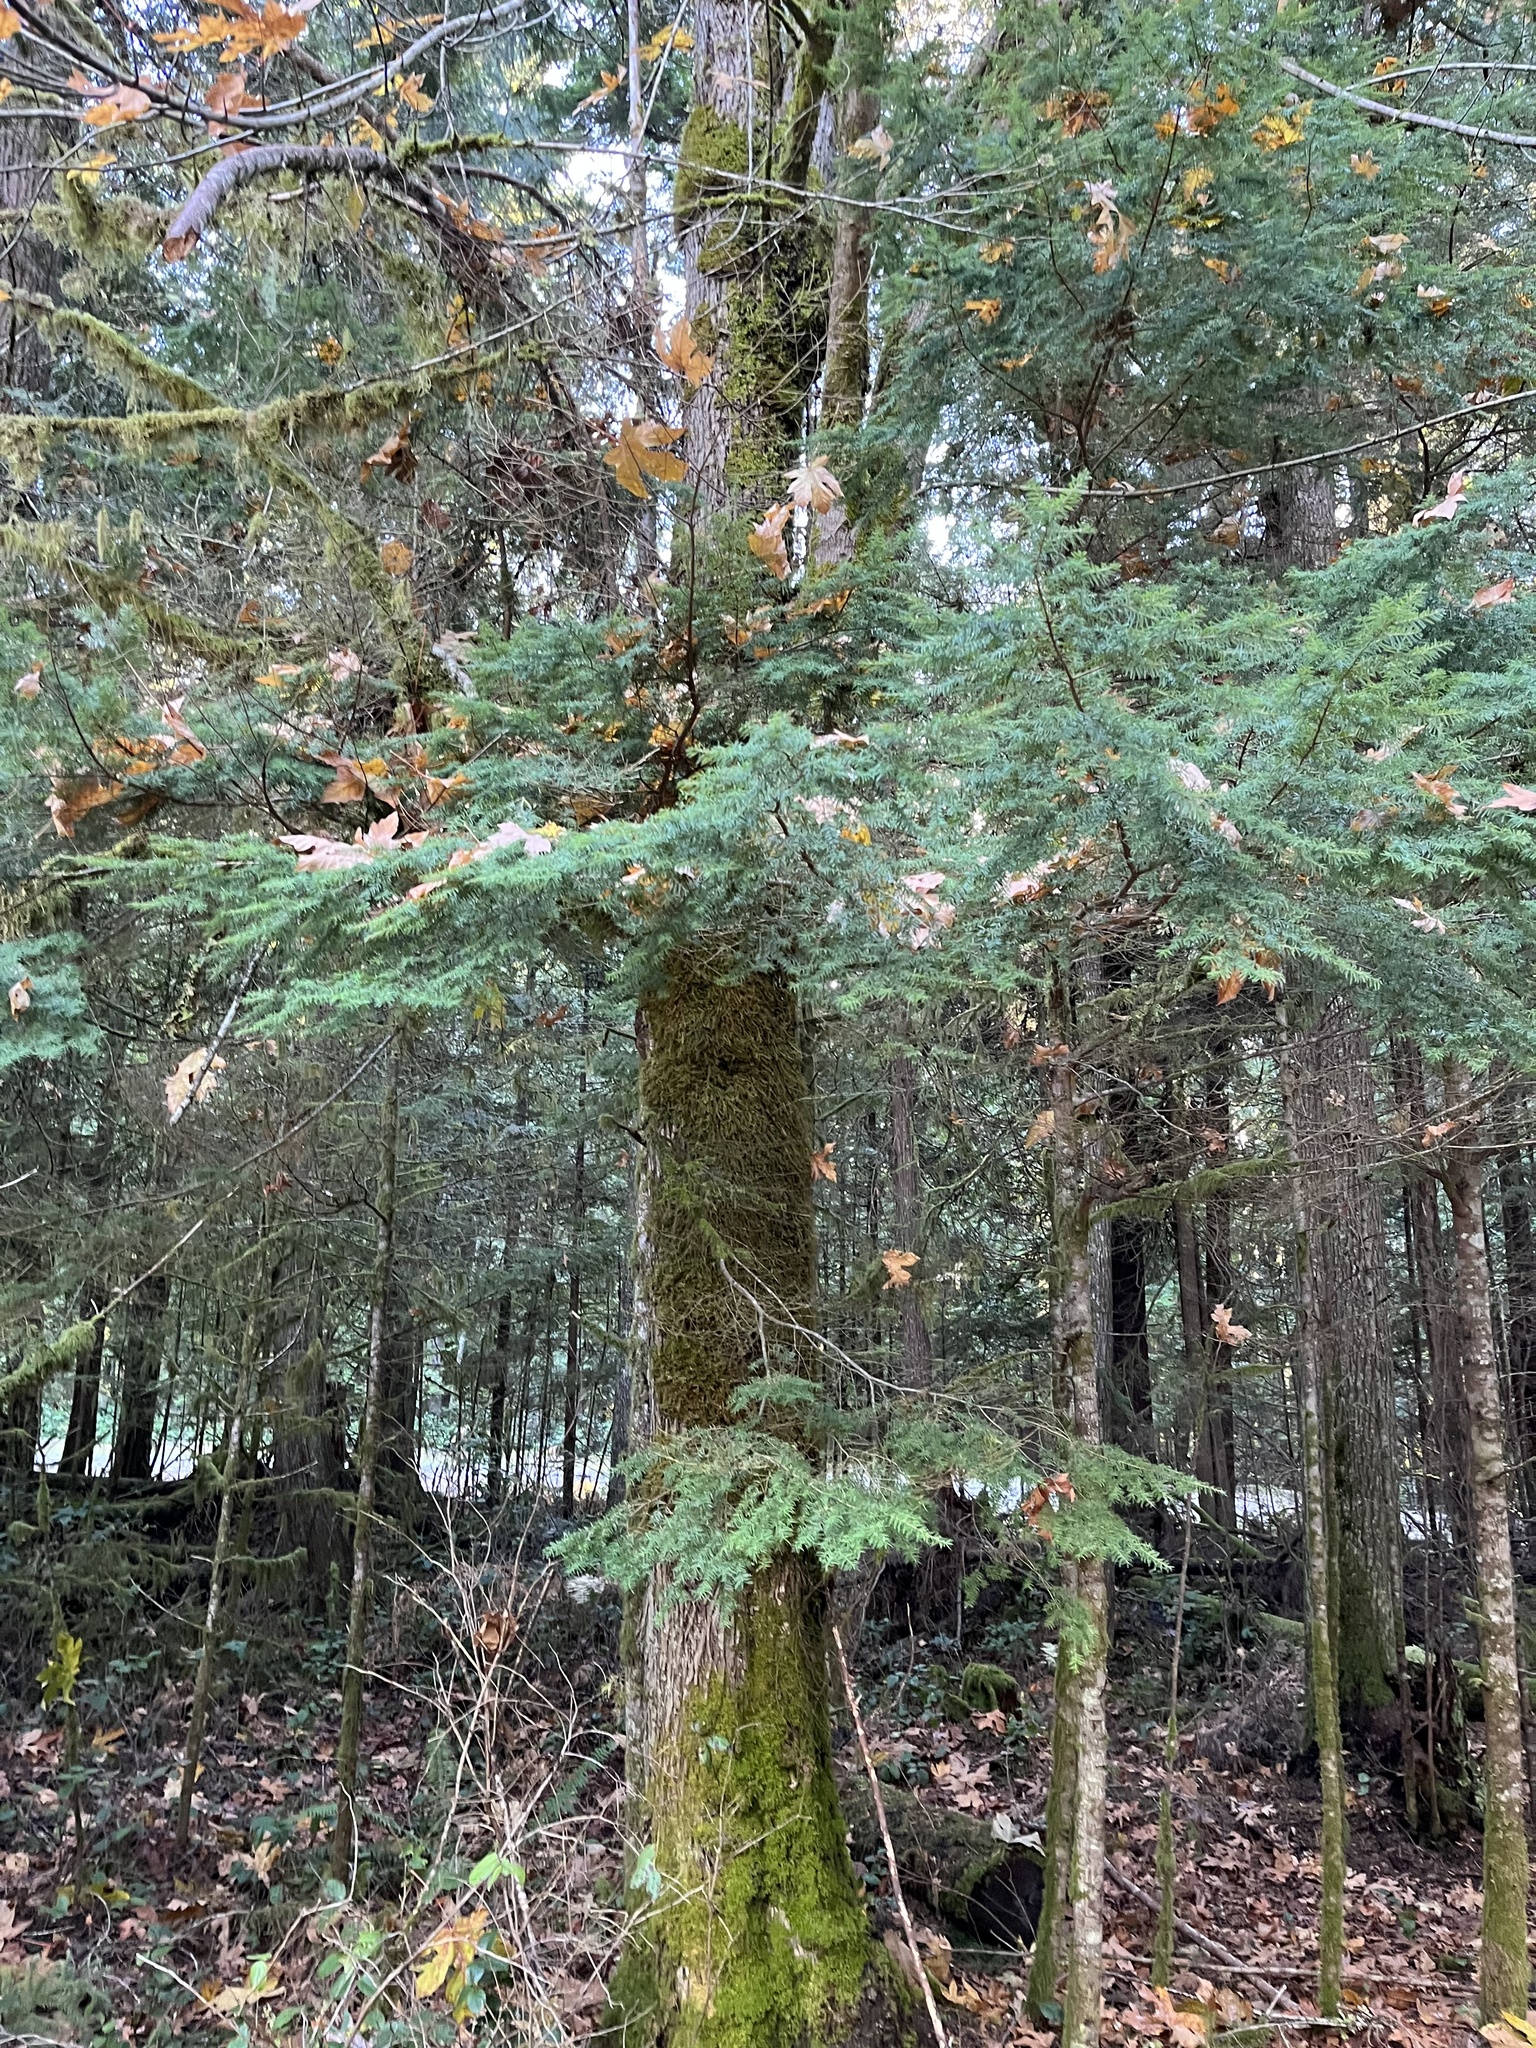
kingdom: Plantae
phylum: Tracheophyta
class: Pinopsida
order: Pinales
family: Pinaceae
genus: Tsuga
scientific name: Tsuga heterophylla
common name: Western hemlock
